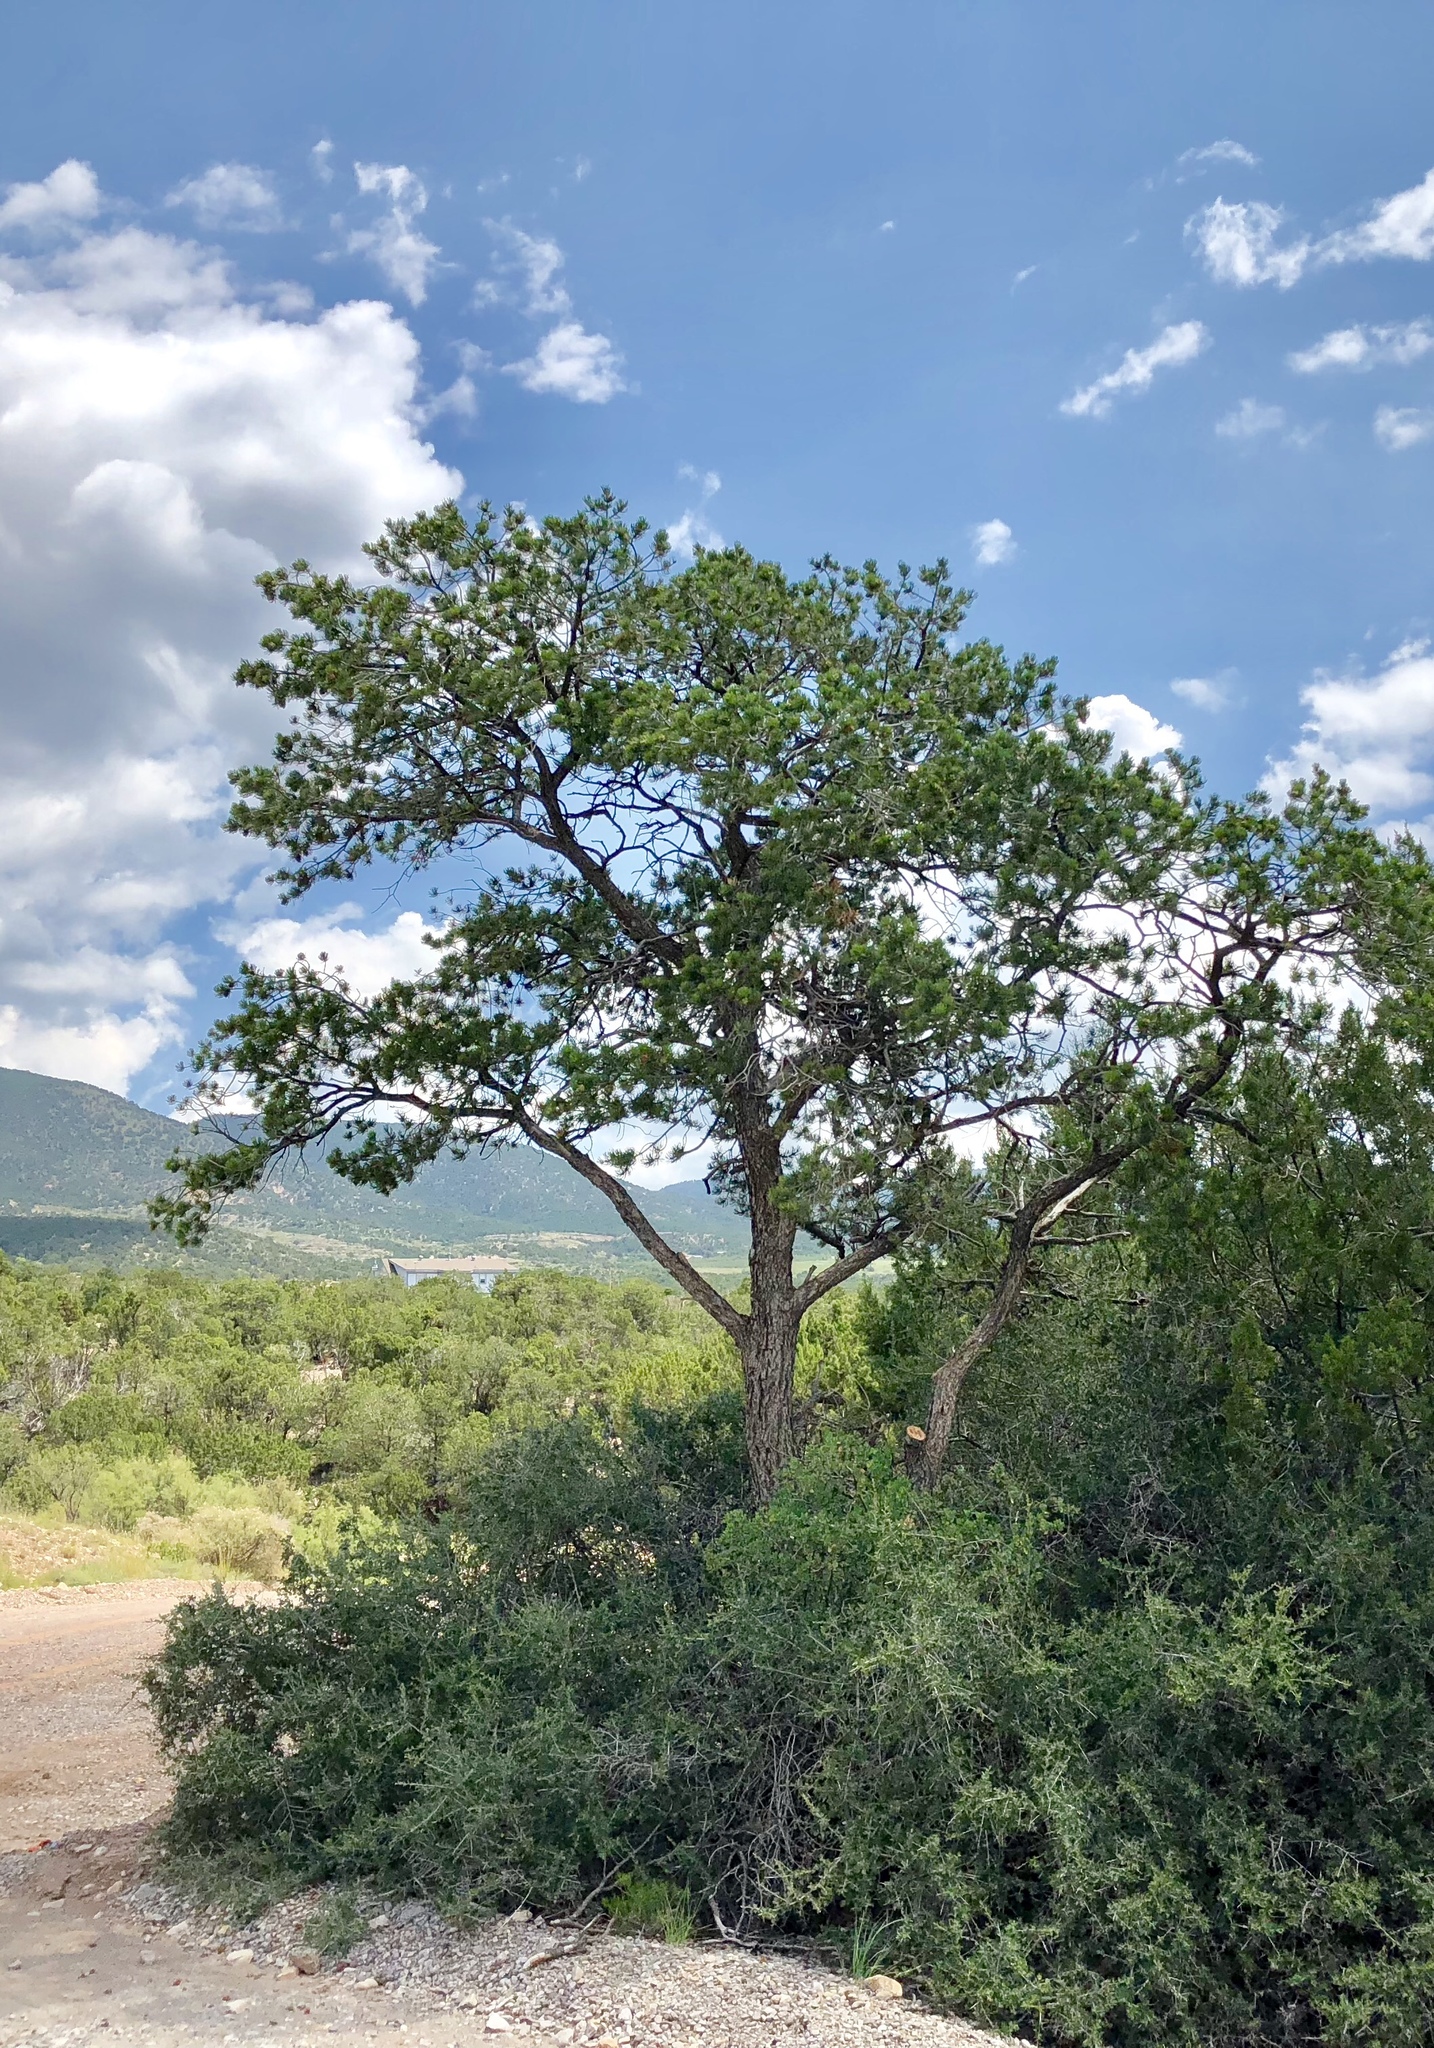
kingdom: Plantae
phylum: Tracheophyta
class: Pinopsida
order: Pinales
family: Pinaceae
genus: Pinus
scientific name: Pinus edulis
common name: Colorado pinyon
